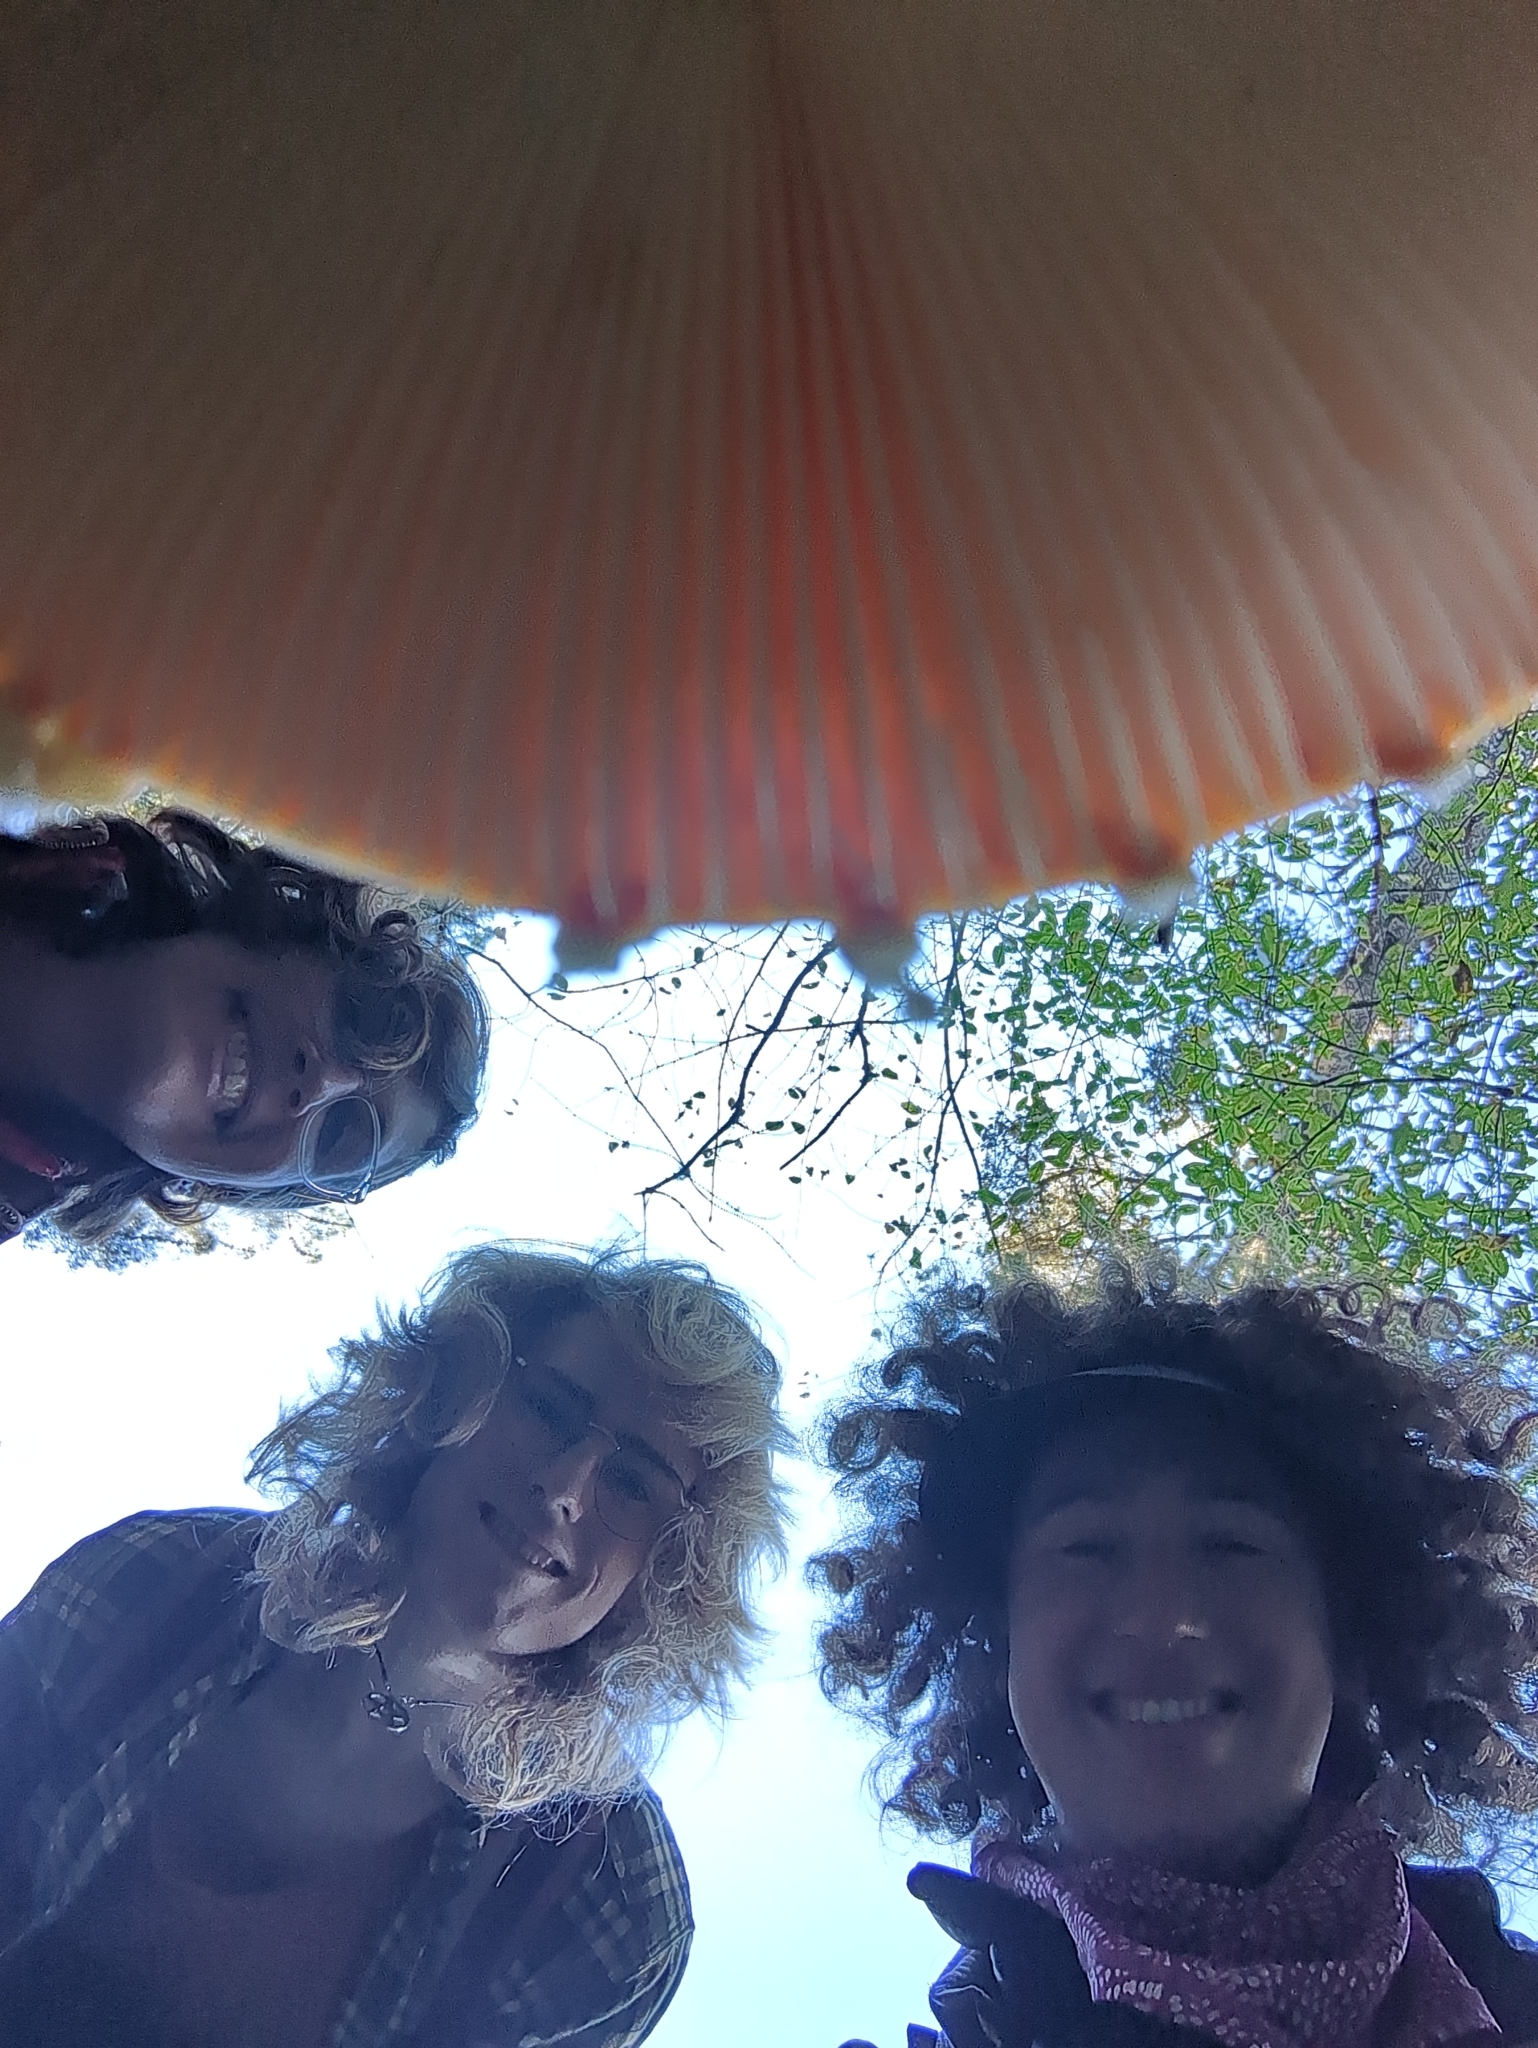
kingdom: Fungi
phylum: Basidiomycota
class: Agaricomycetes
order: Agaricales
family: Amanitaceae
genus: Amanita
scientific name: Amanita muscaria
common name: Fly agaric
